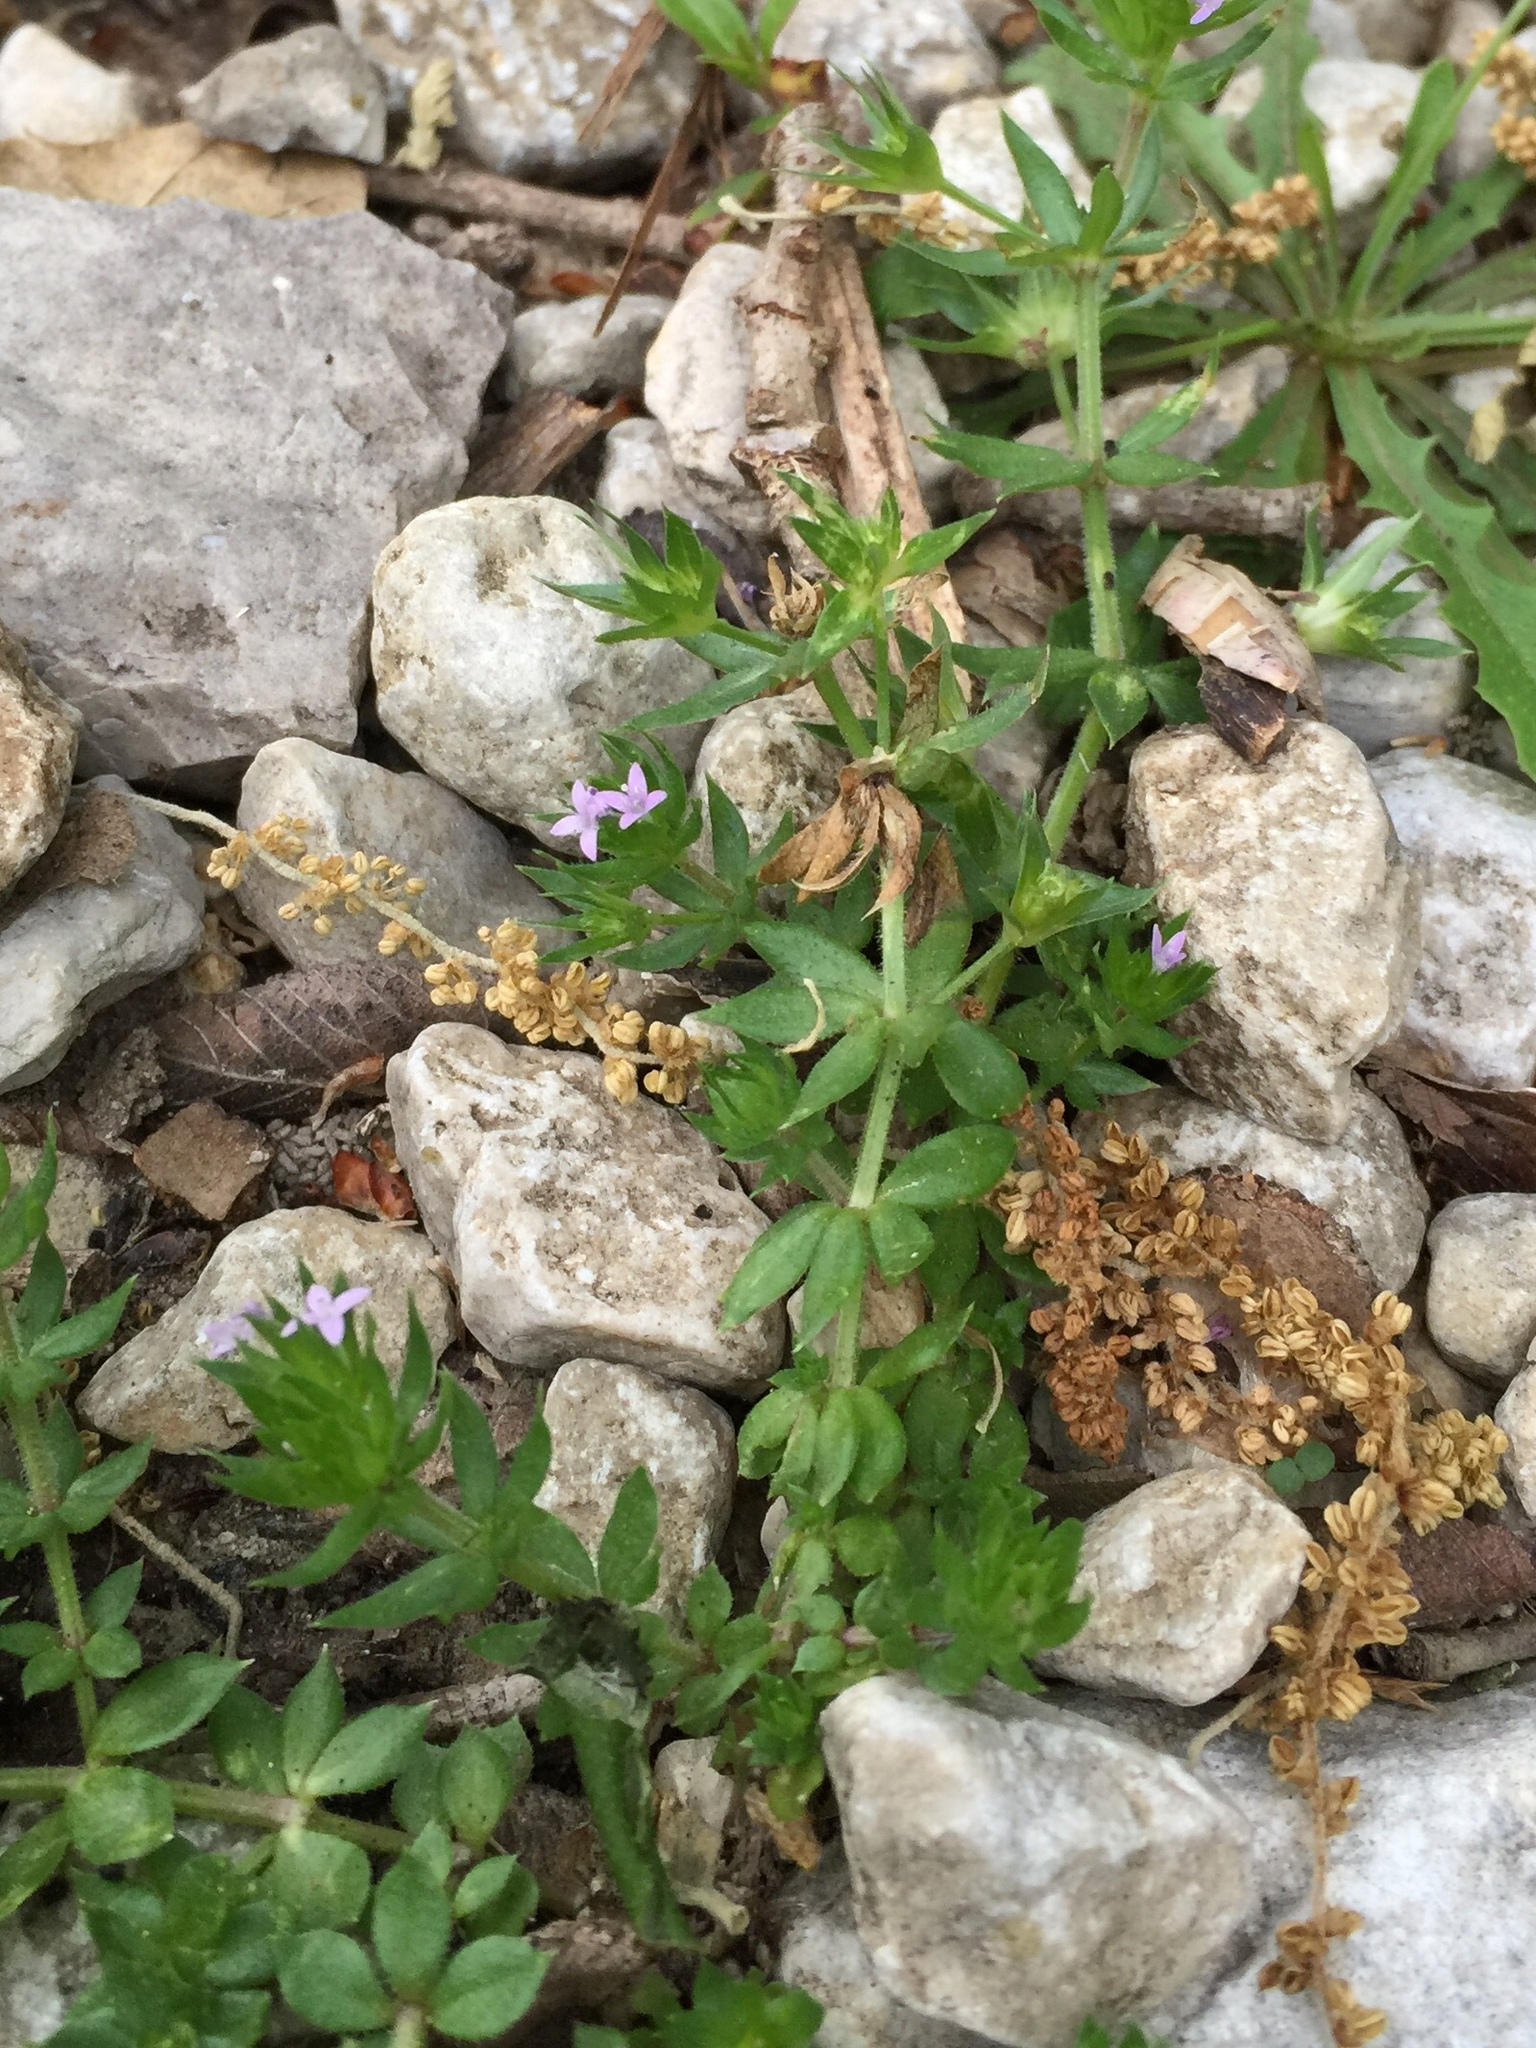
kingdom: Plantae
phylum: Tracheophyta
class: Magnoliopsida
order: Gentianales
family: Rubiaceae
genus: Sherardia
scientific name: Sherardia arvensis
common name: Field madder
